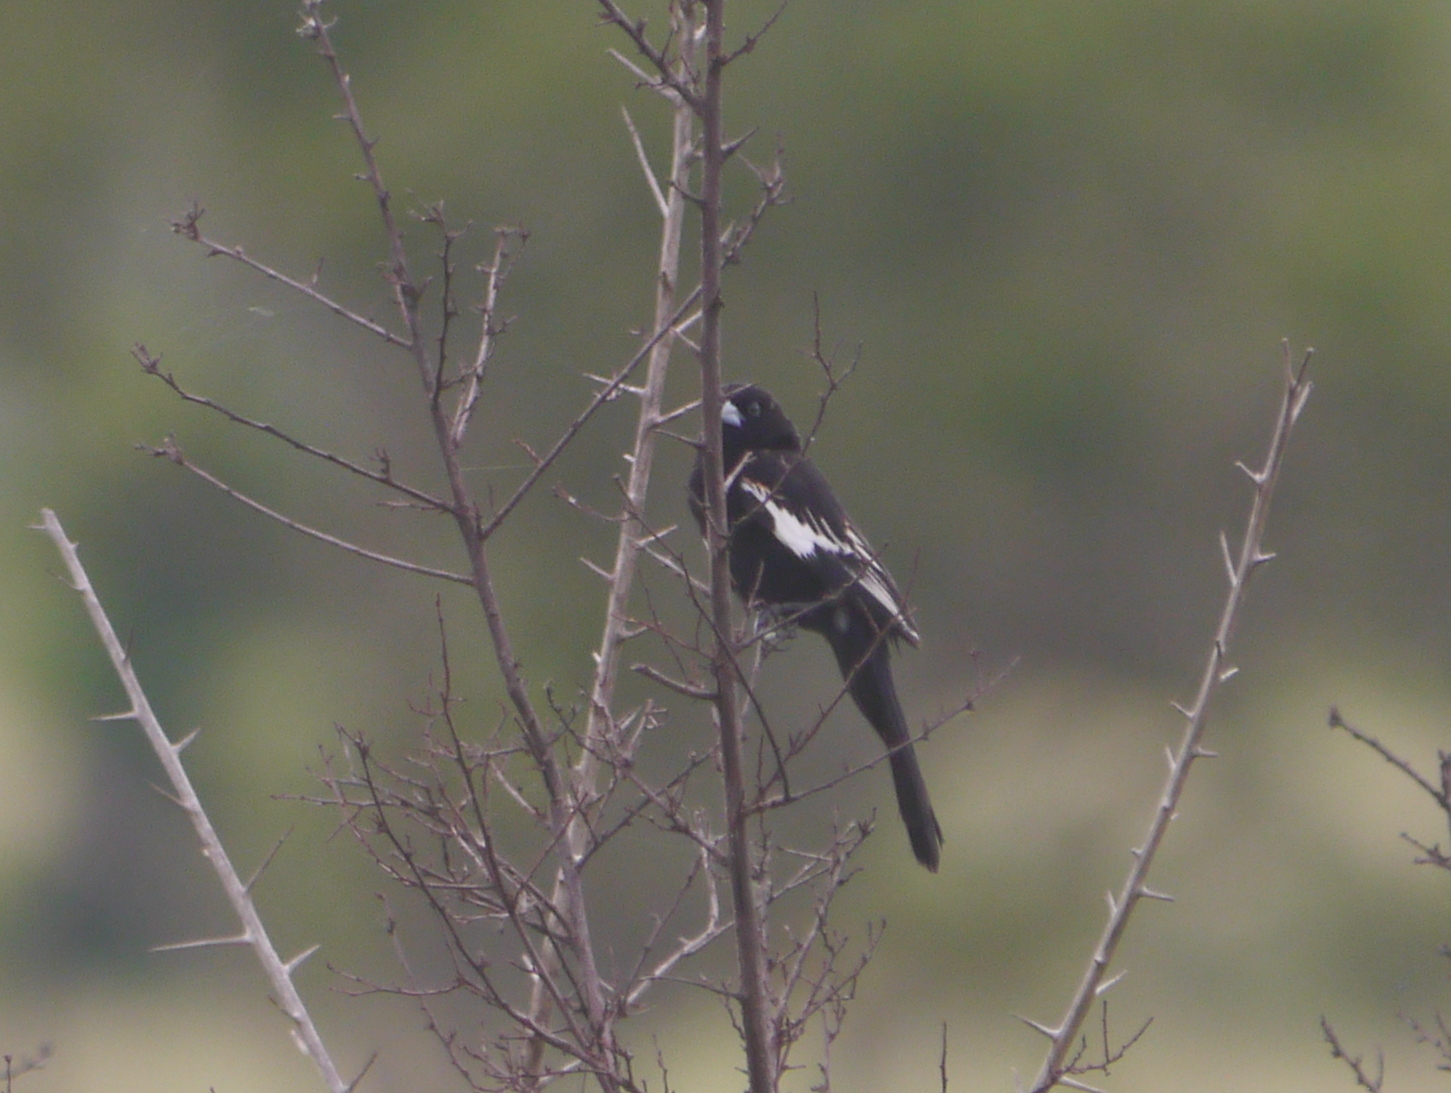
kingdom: Animalia
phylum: Chordata
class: Aves
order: Passeriformes
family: Ploceidae
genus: Euplectes
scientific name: Euplectes albonotatus
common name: White-winged widowbird
